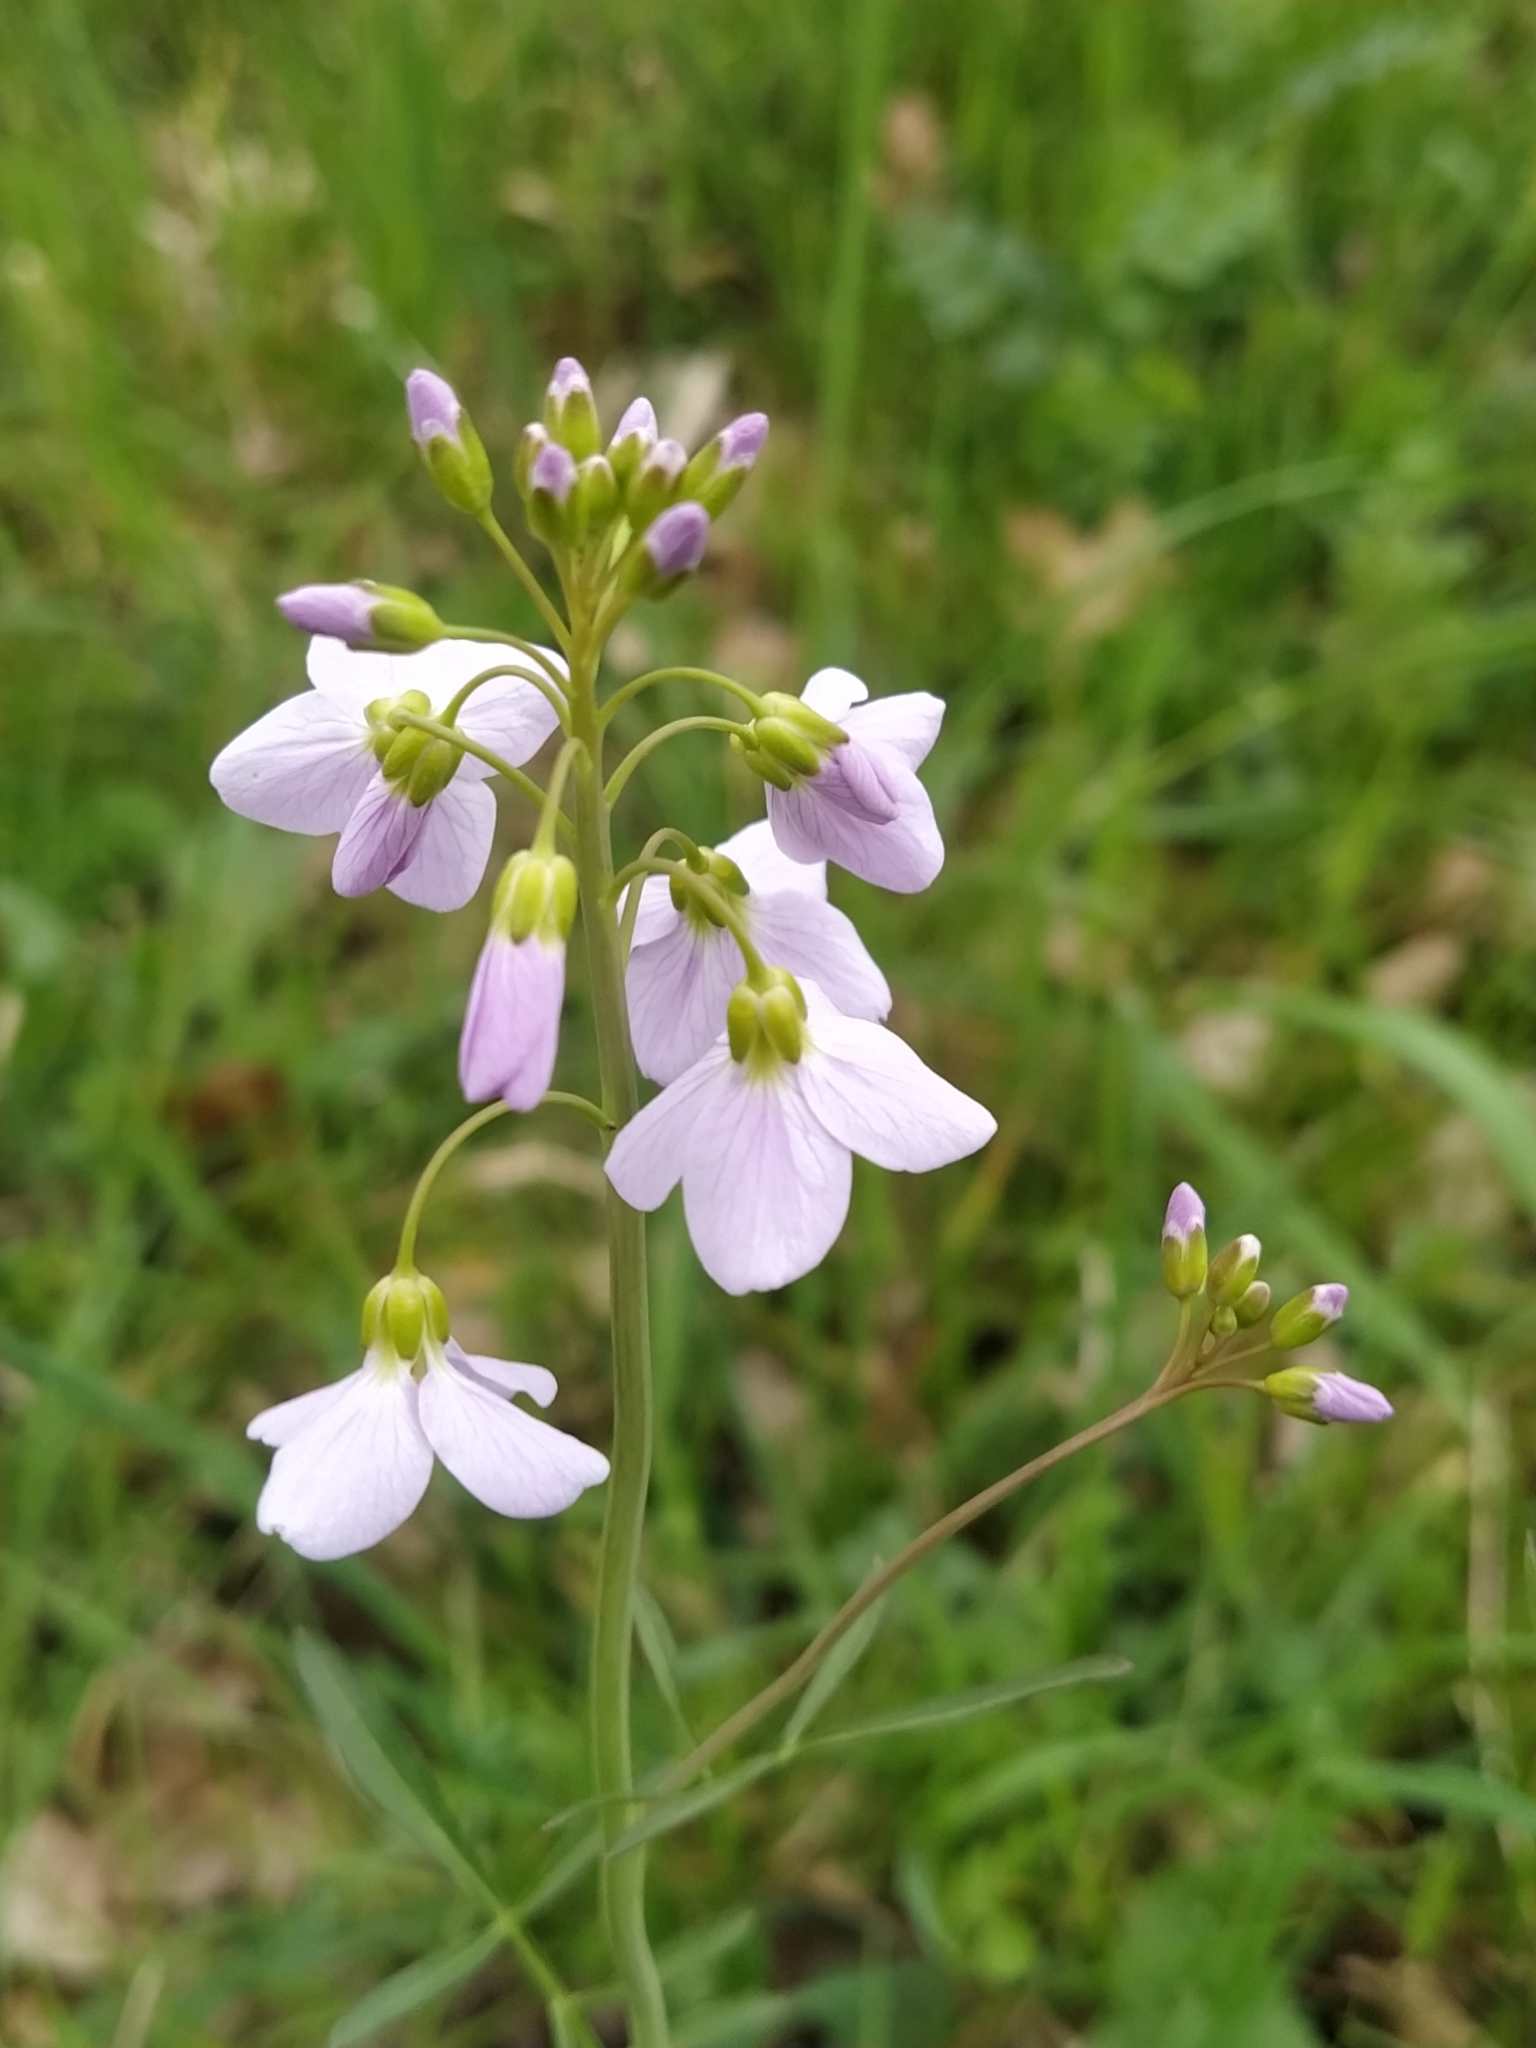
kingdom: Plantae
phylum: Tracheophyta
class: Magnoliopsida
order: Brassicales
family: Brassicaceae
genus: Cardamine
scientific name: Cardamine pratensis
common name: Cuckoo flower
